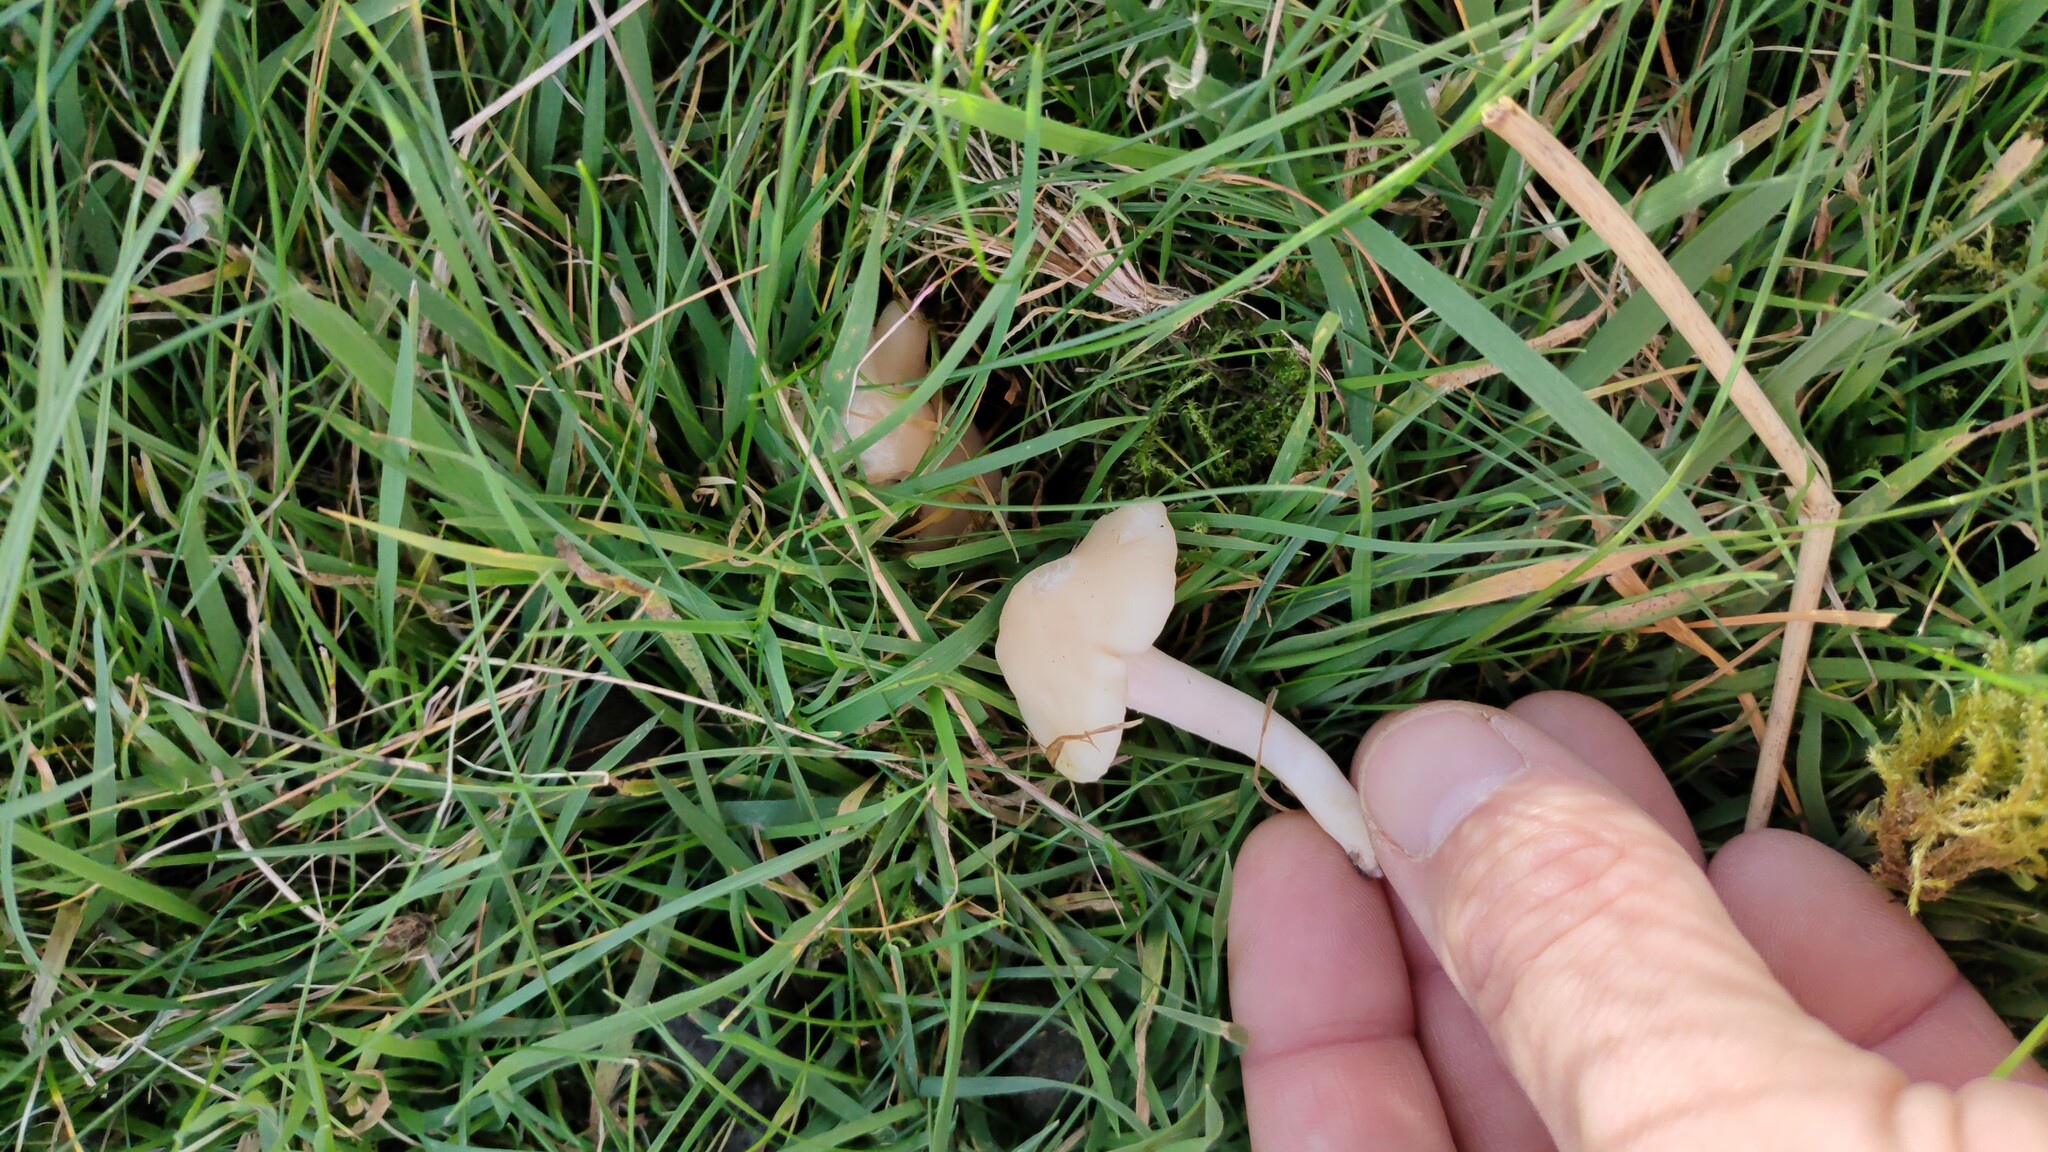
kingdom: Fungi
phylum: Basidiomycota
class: Agaricomycetes
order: Agaricales
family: Hygrophoraceae
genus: Cuphophyllus
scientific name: Cuphophyllus virgineus
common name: Snowy waxcap
